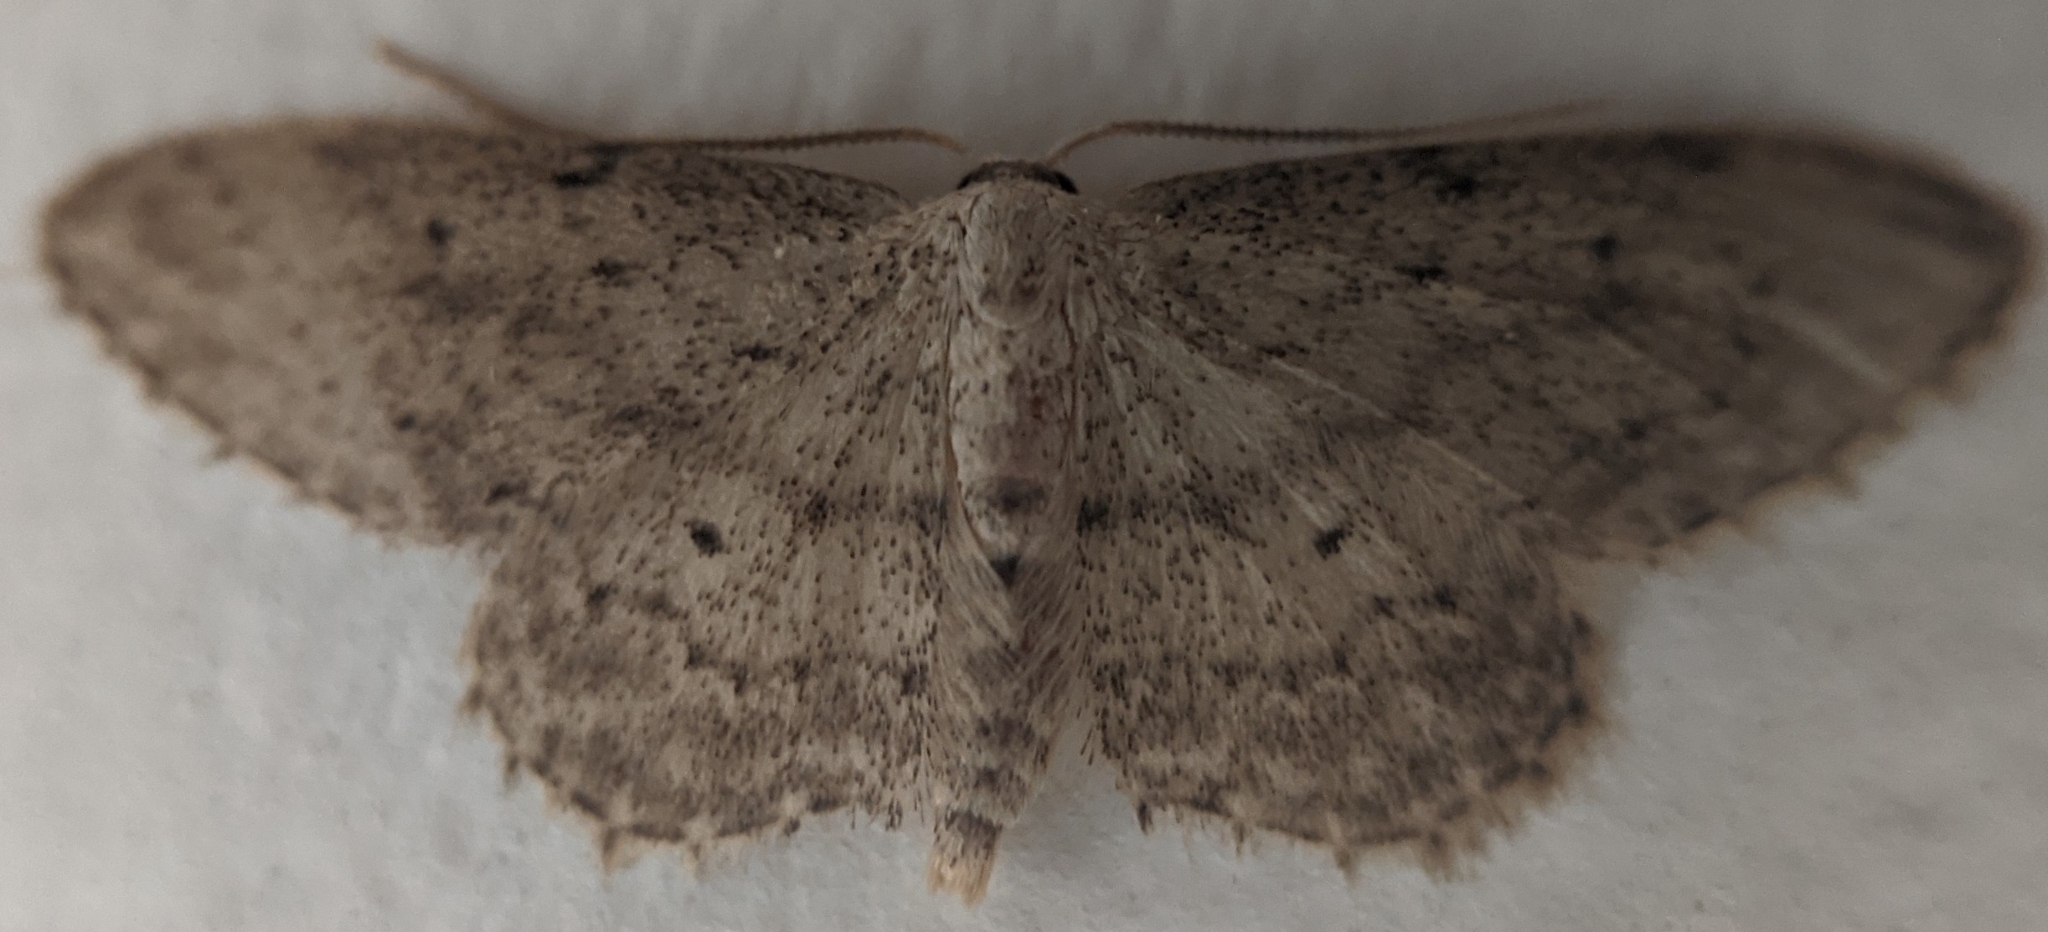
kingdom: Animalia
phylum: Arthropoda
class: Insecta
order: Lepidoptera
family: Geometridae
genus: Idaea
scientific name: Idaea seriata
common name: Small dusty wave
